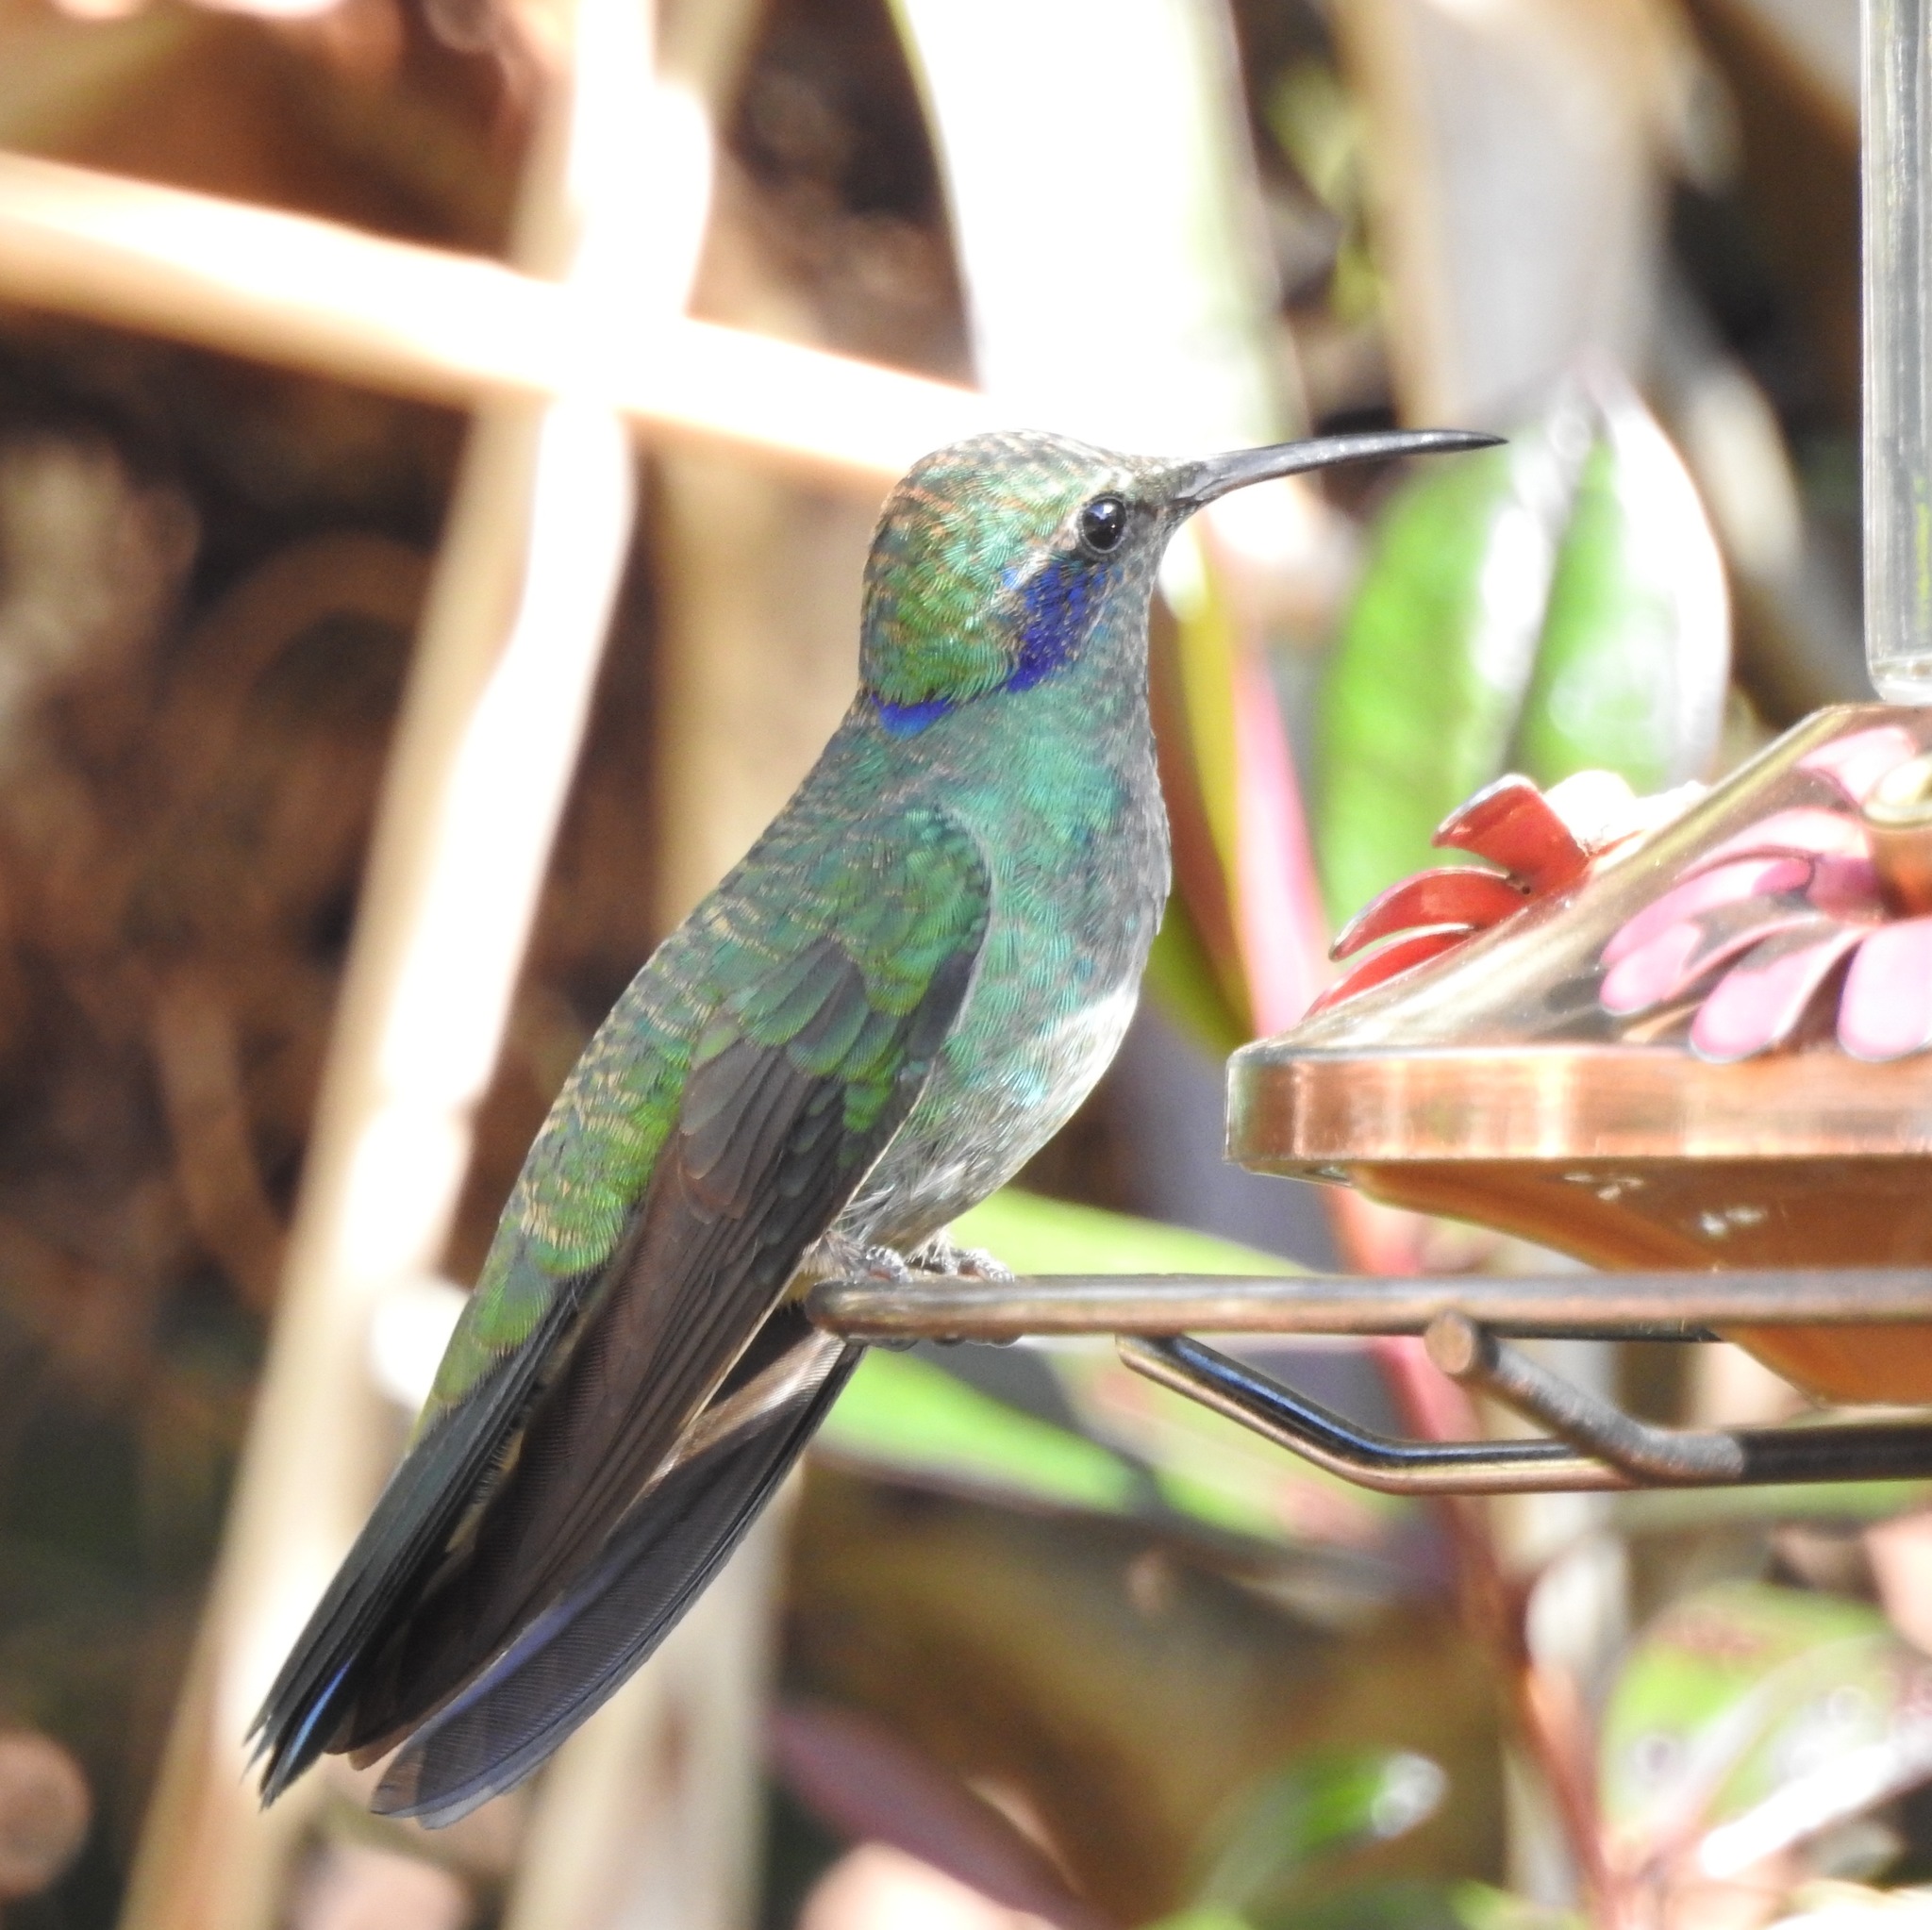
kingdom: Animalia
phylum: Chordata
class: Aves
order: Apodiformes
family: Trochilidae
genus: Colibri
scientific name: Colibri cyanotus
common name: Lesser violetear
